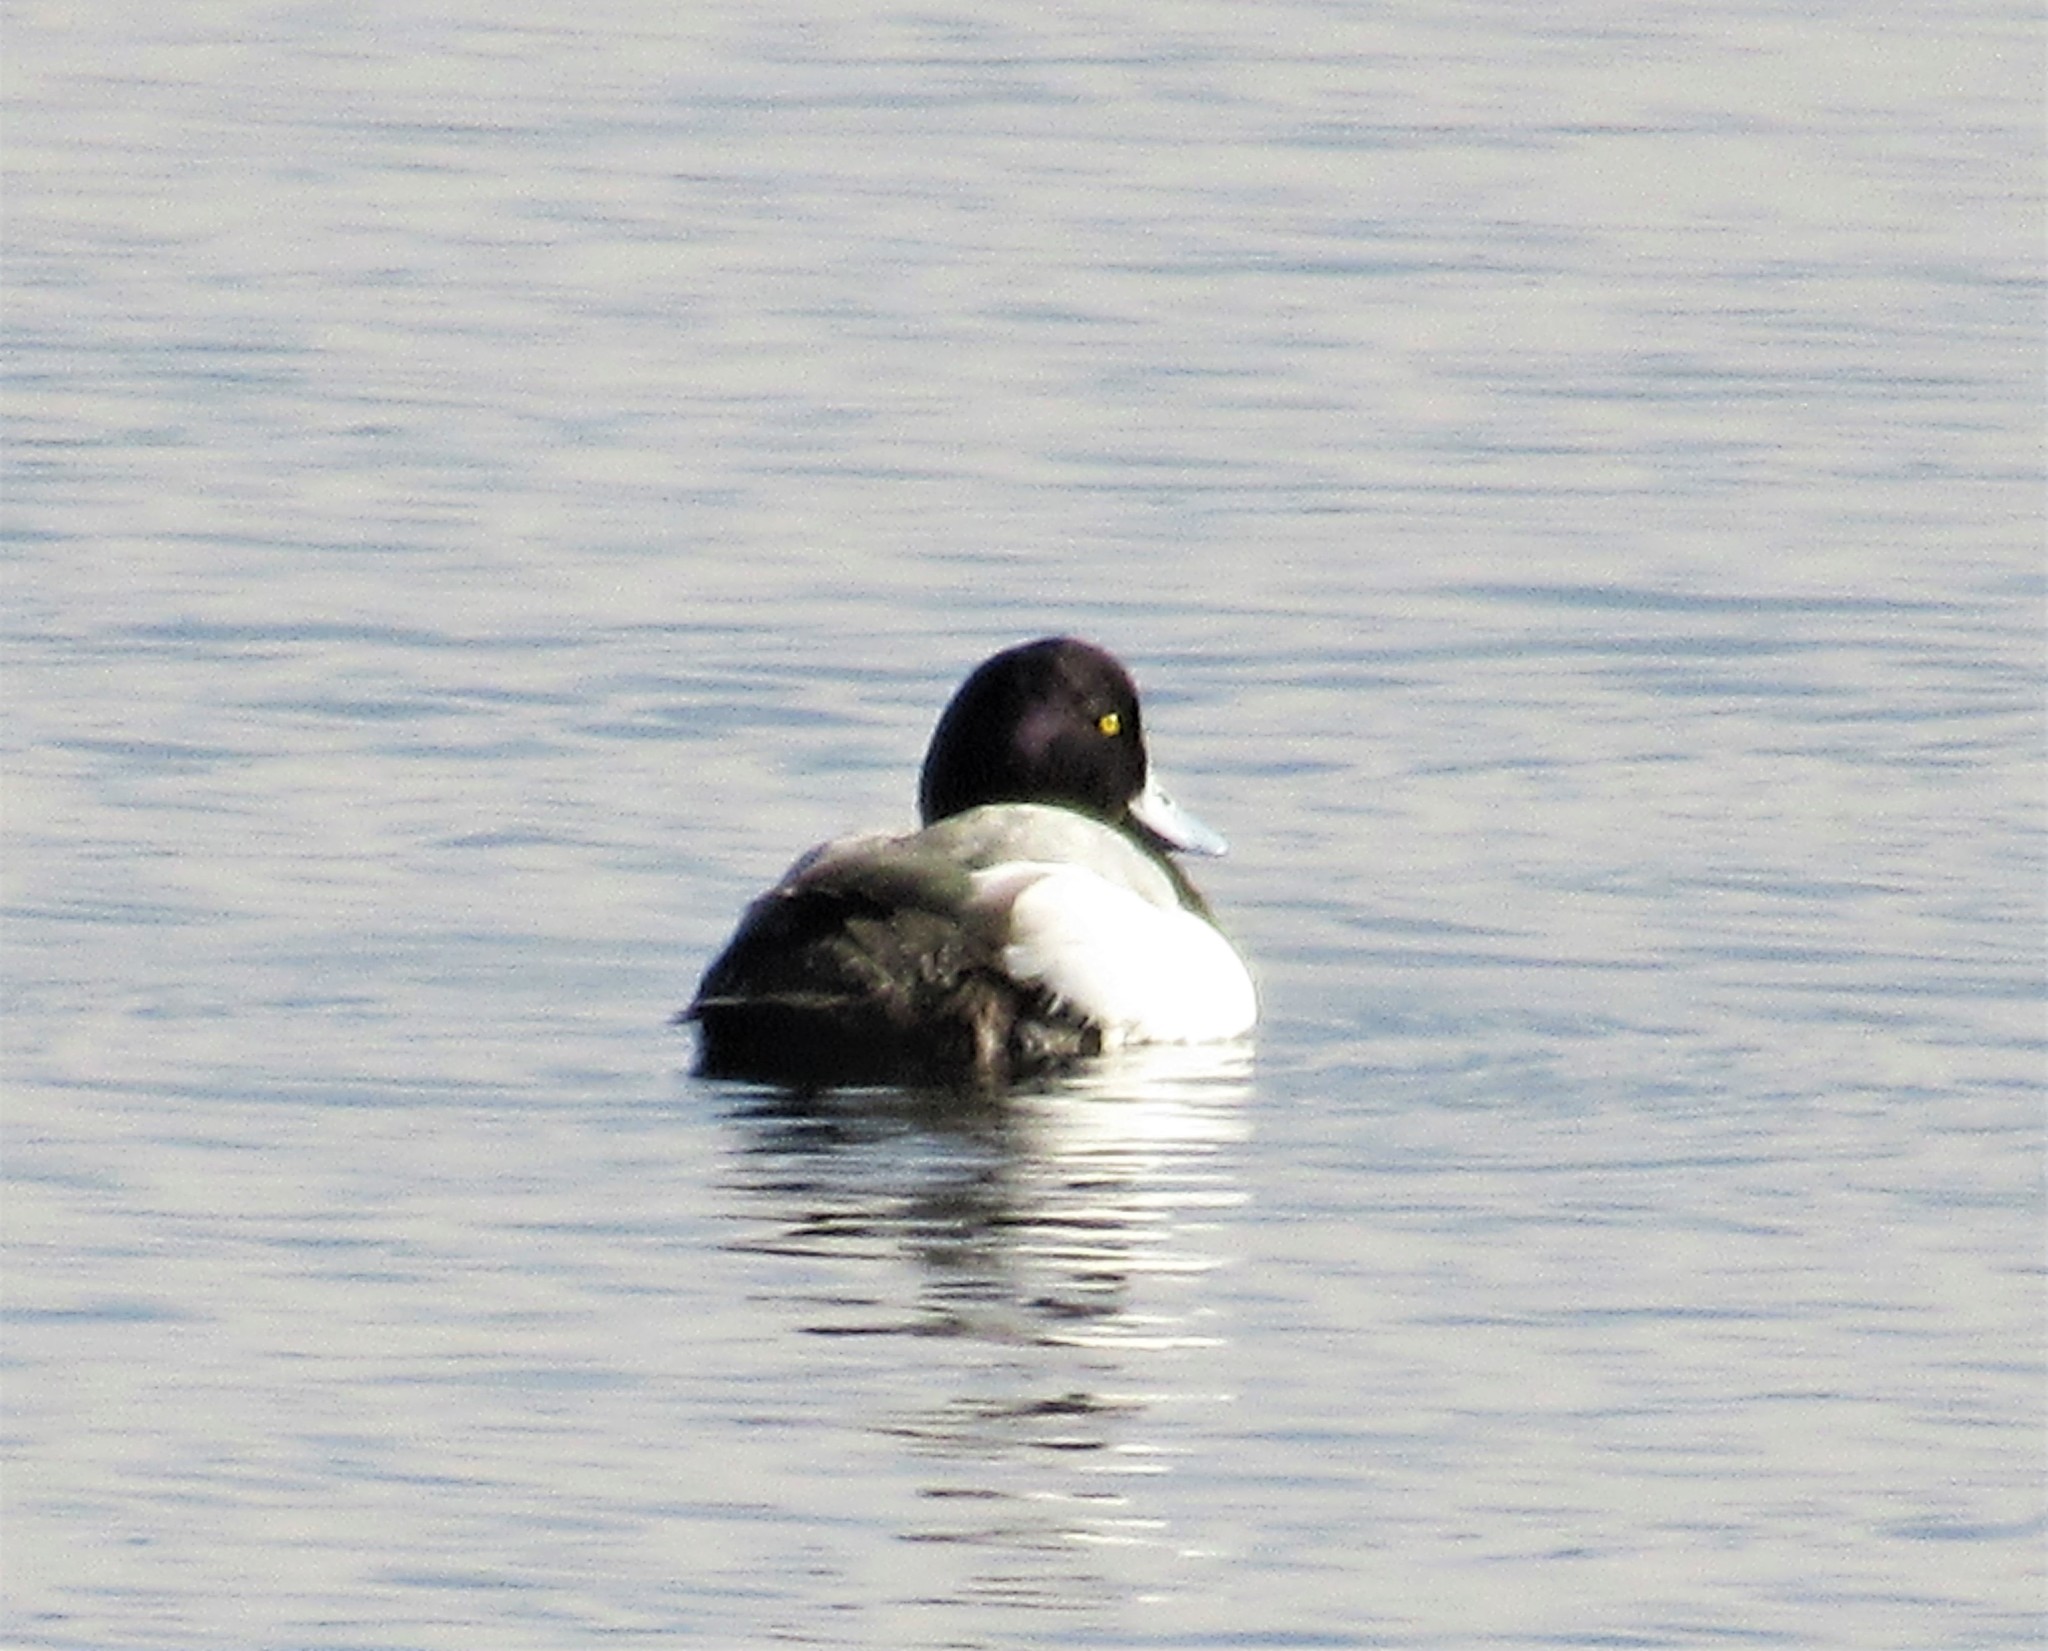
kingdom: Animalia
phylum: Chordata
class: Aves
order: Anseriformes
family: Anatidae
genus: Aythya
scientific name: Aythya affinis
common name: Lesser scaup
